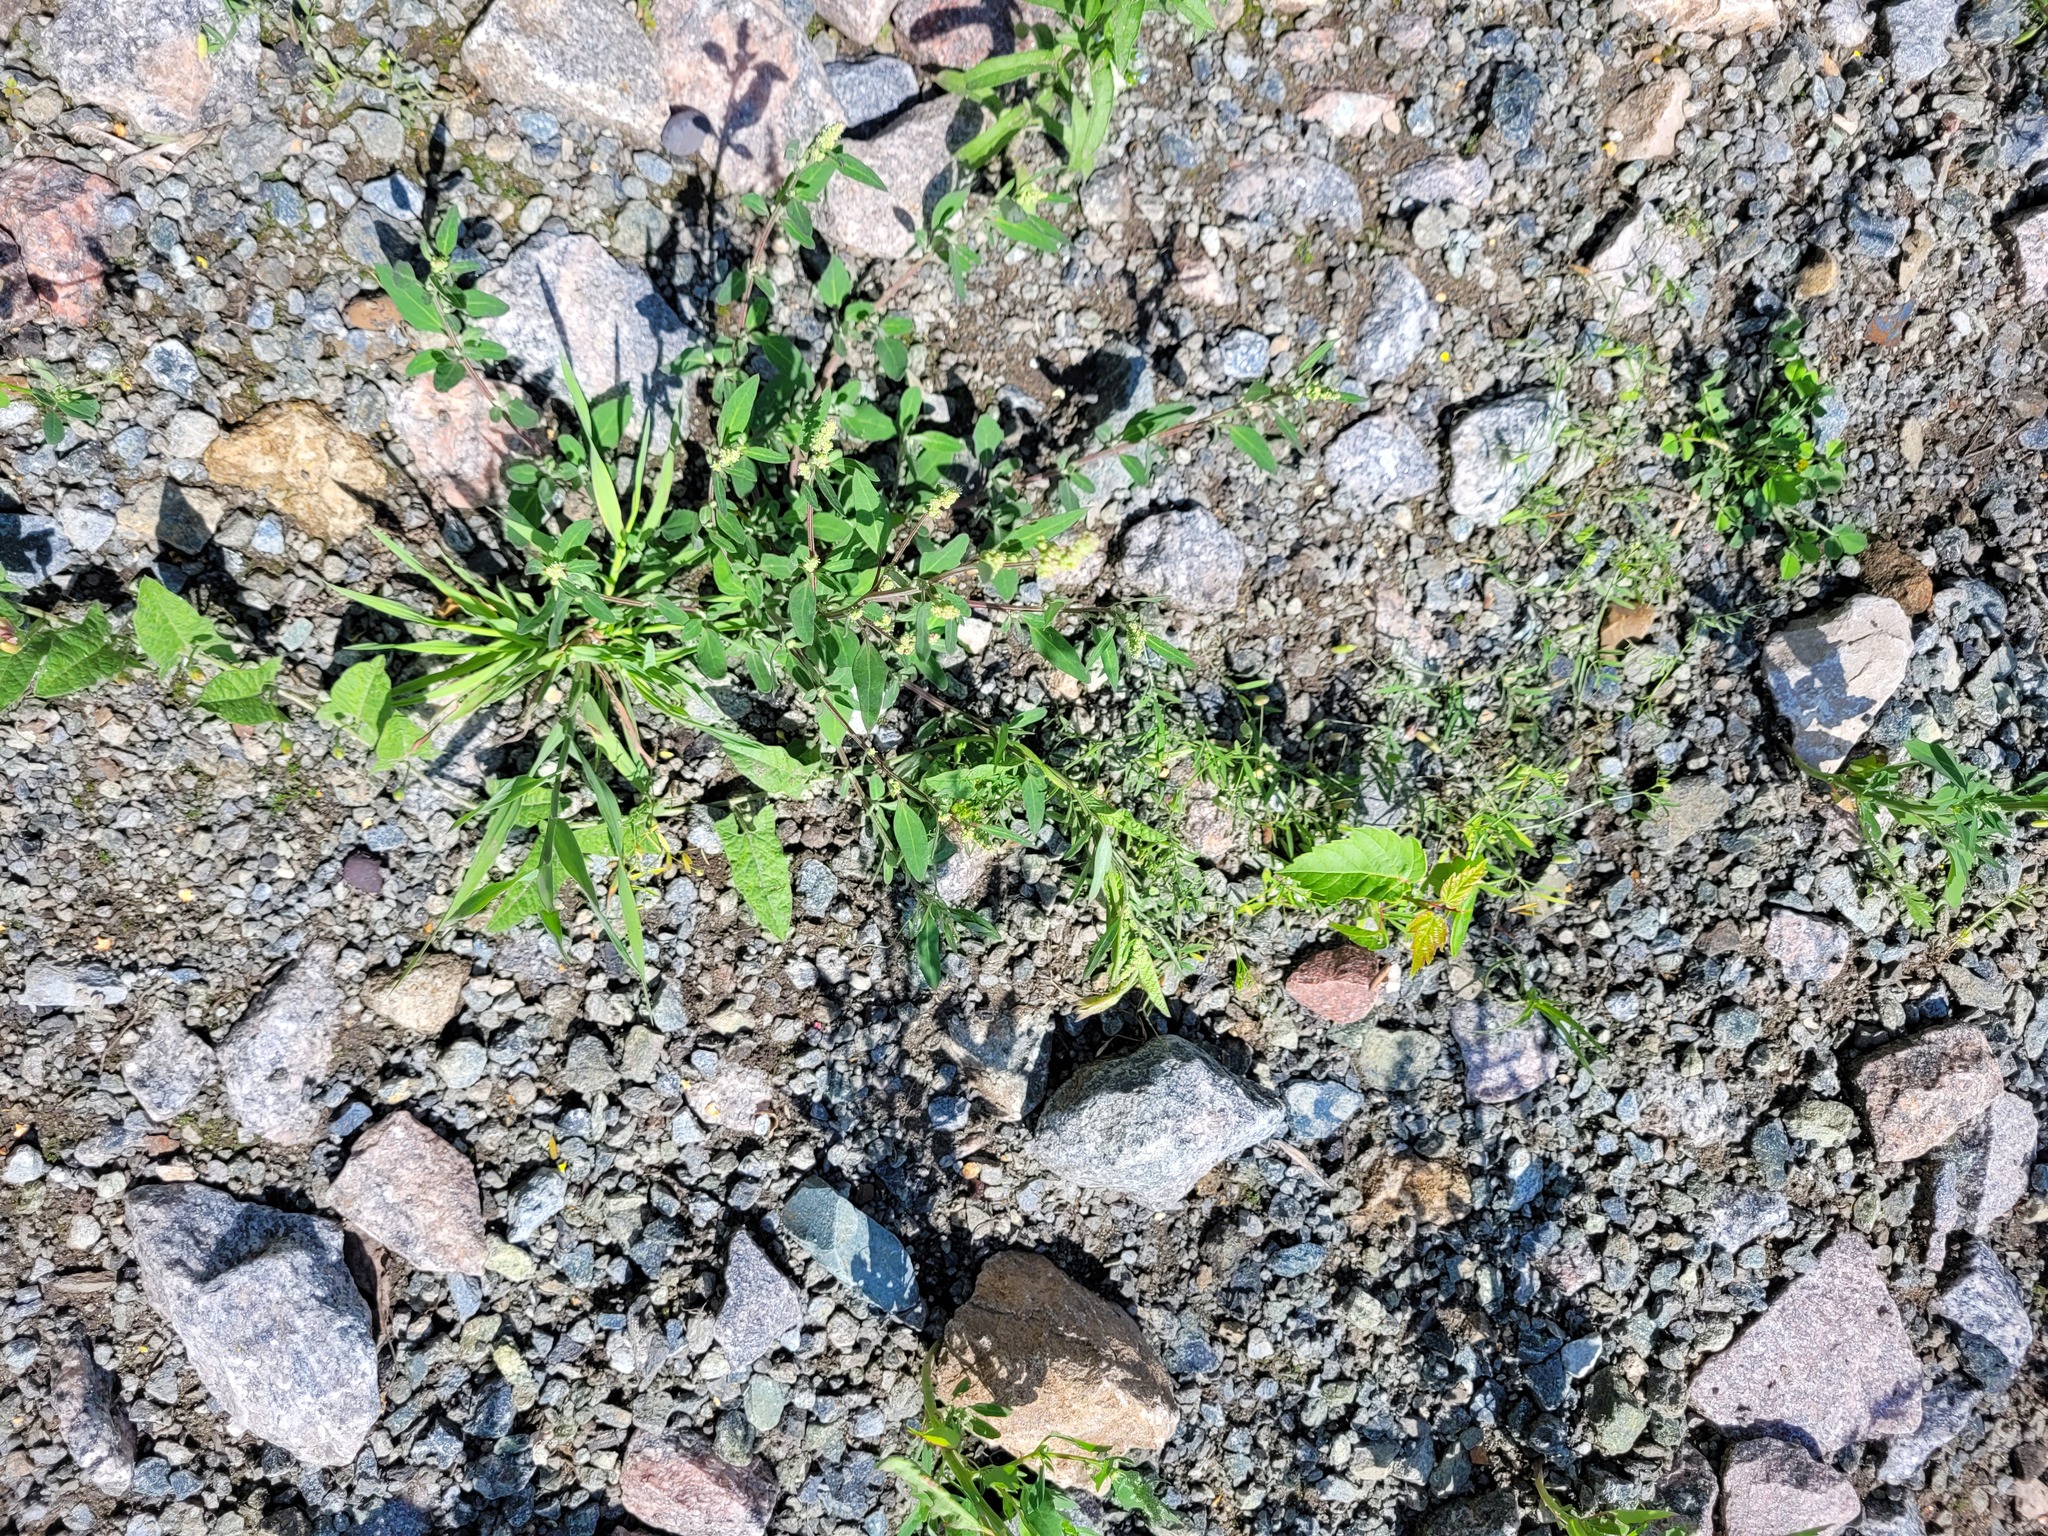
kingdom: Plantae
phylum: Tracheophyta
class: Magnoliopsida
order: Caryophyllales
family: Amaranthaceae
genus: Chenopodium
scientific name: Chenopodium betaceum
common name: Striped goosefoot
